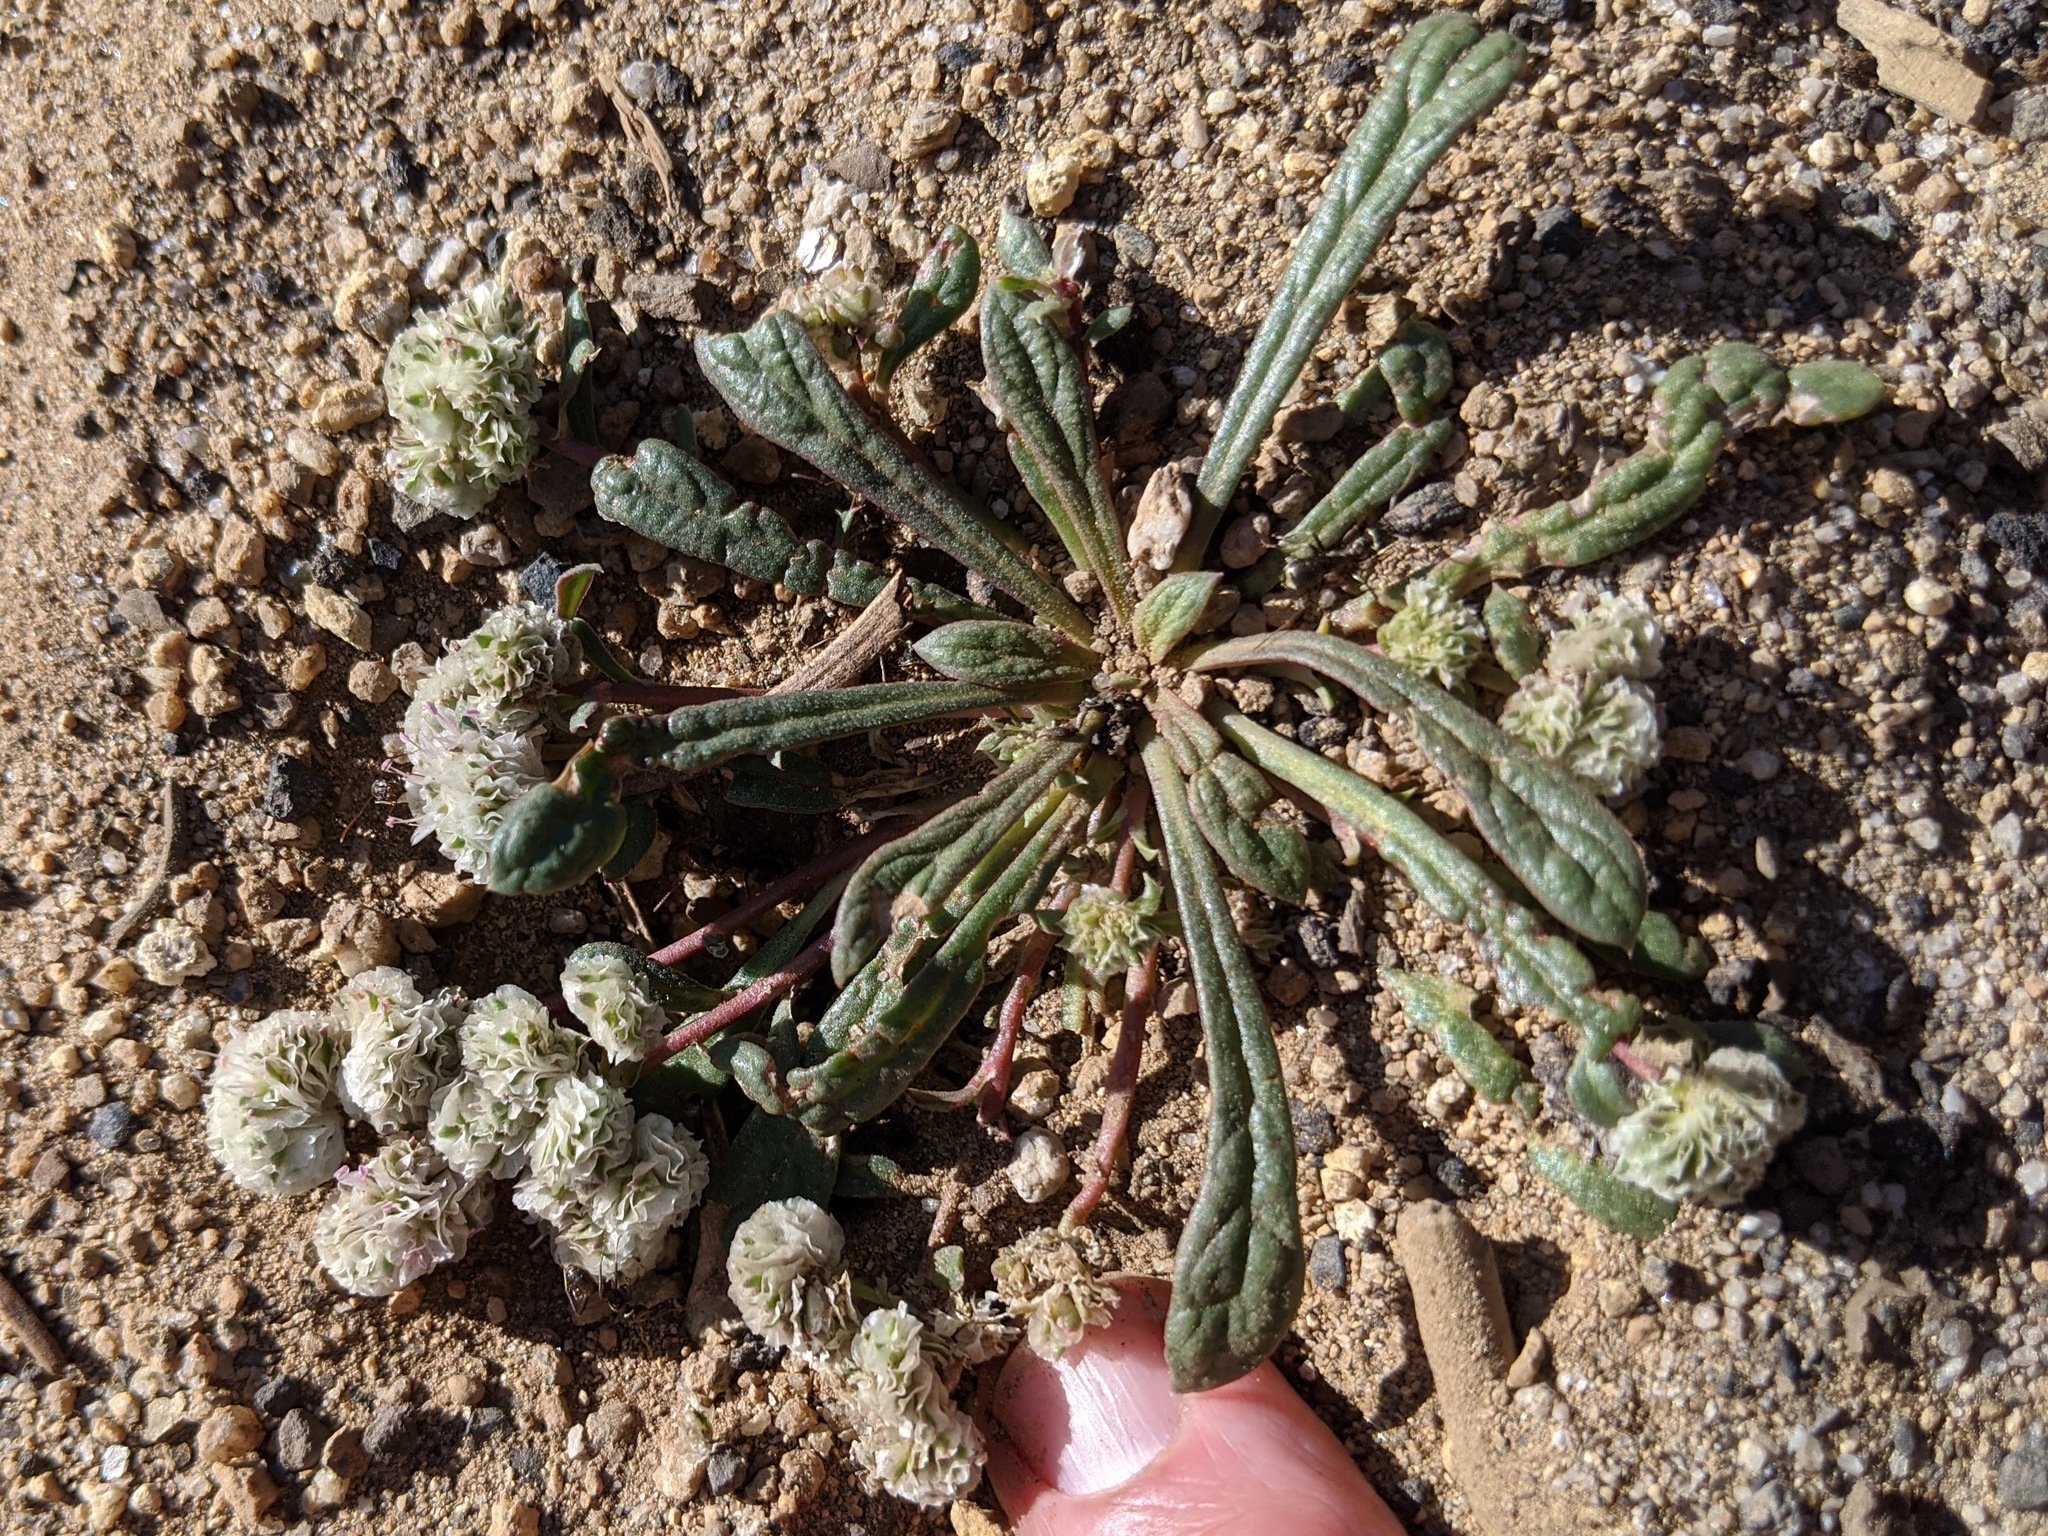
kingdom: Plantae
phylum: Tracheophyta
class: Magnoliopsida
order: Caryophyllales
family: Montiaceae
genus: Calyptridium
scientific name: Calyptridium monospermum
